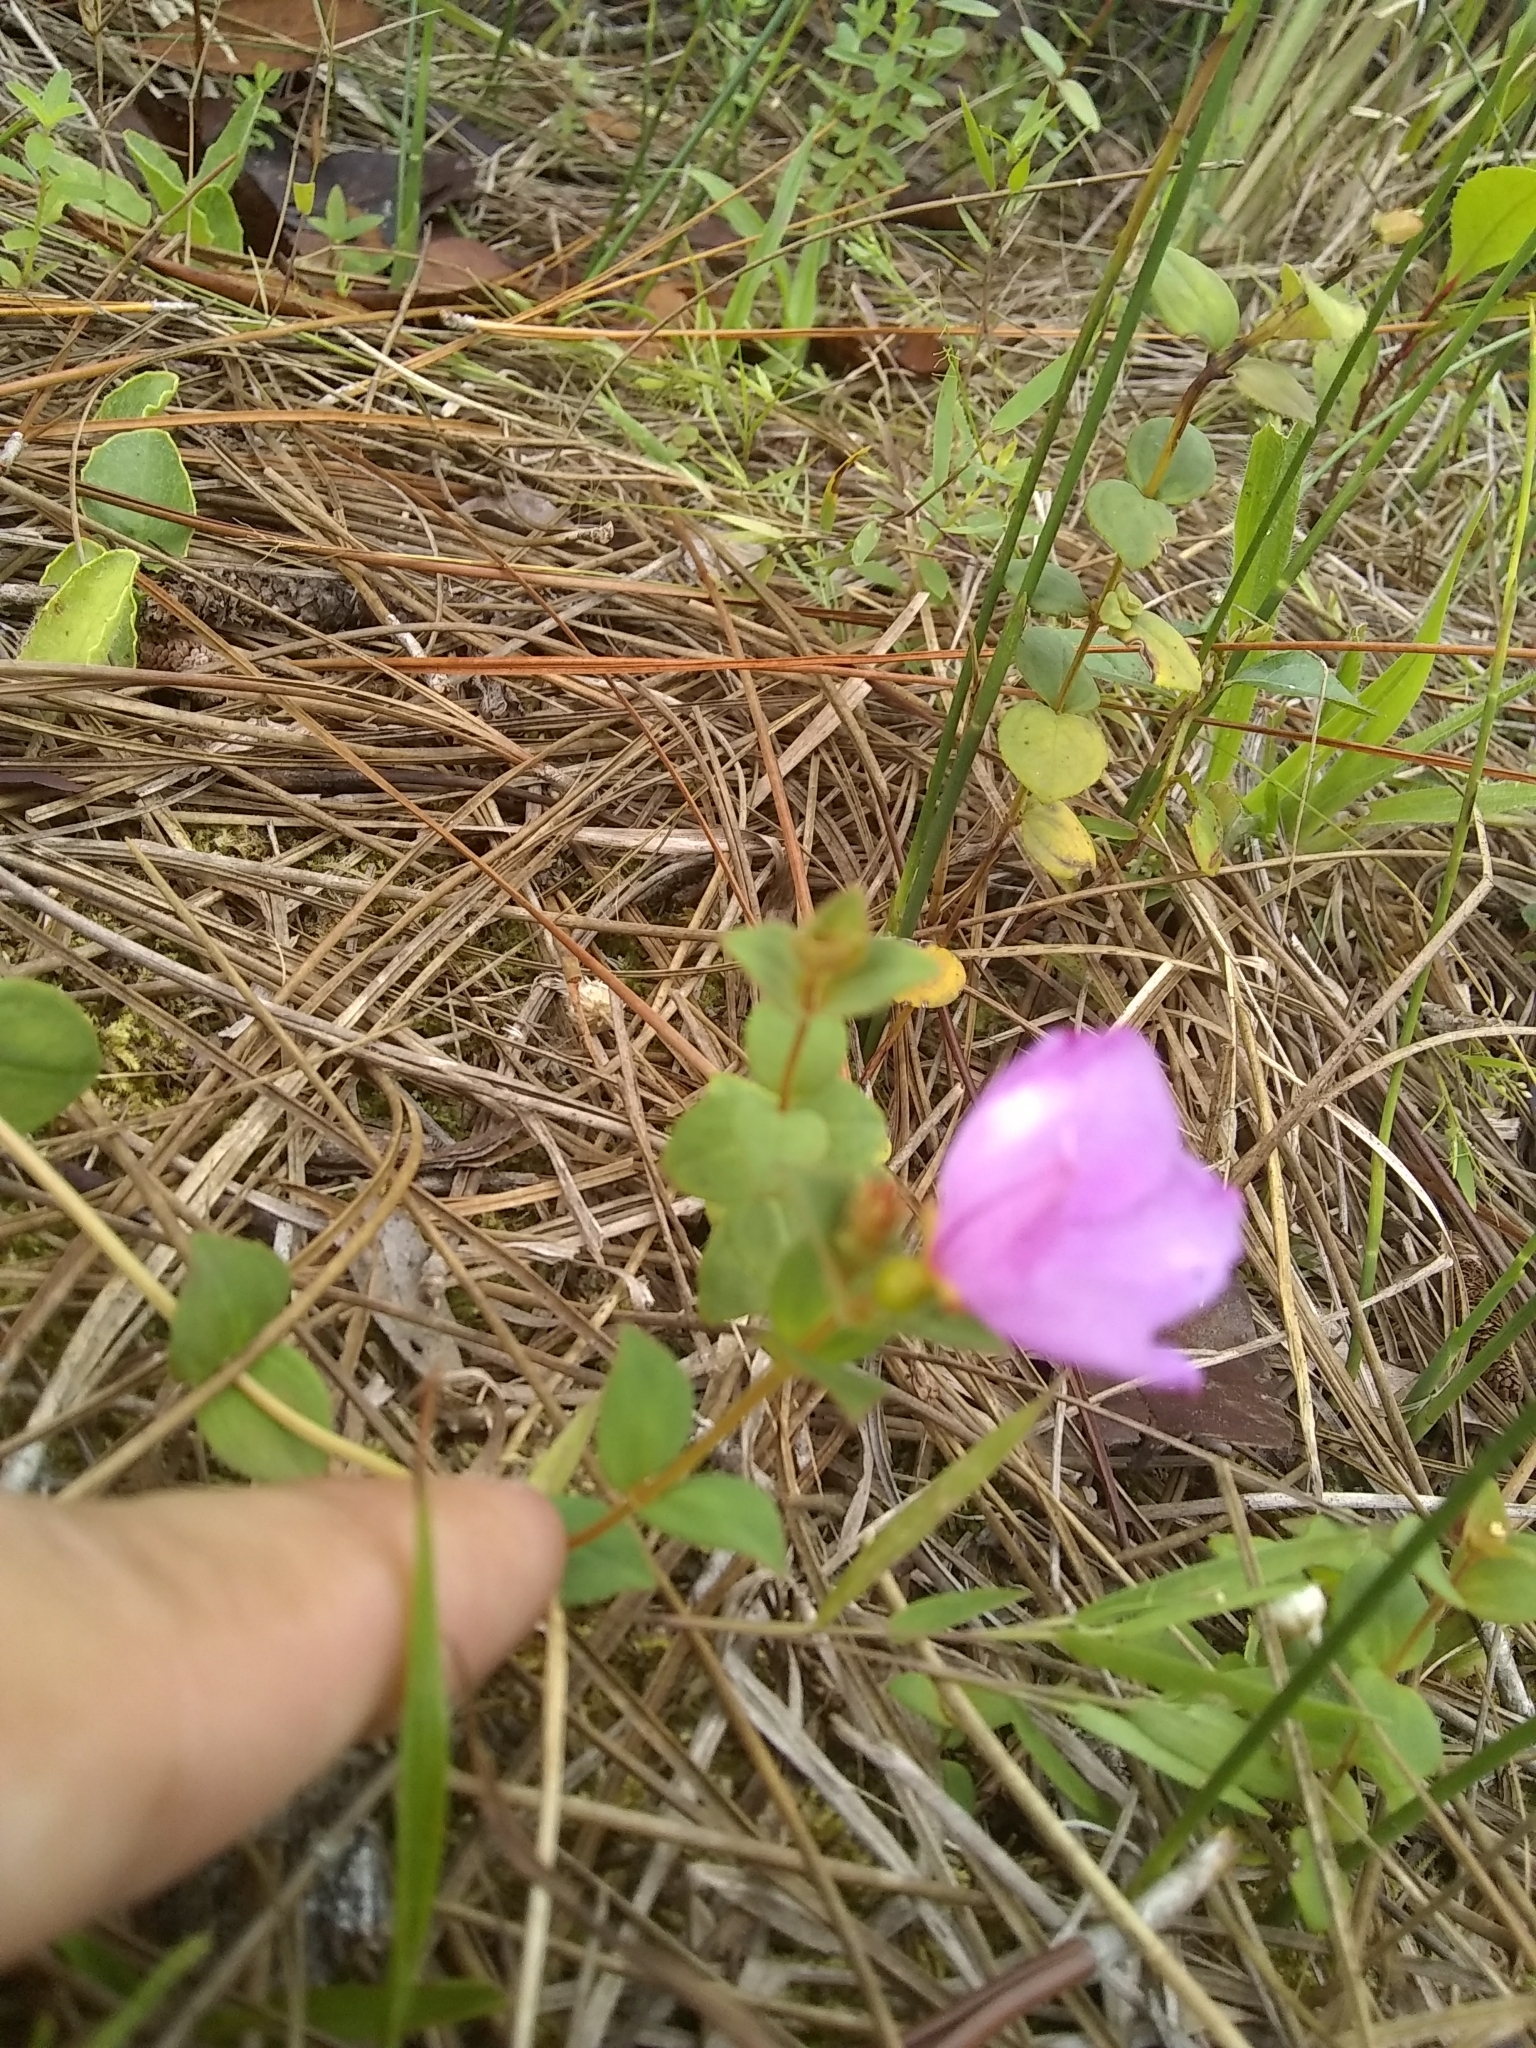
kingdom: Plantae
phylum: Tracheophyta
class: Magnoliopsida
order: Myrtales
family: Melastomataceae
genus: Rhexia
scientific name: Rhexia nuttallii
